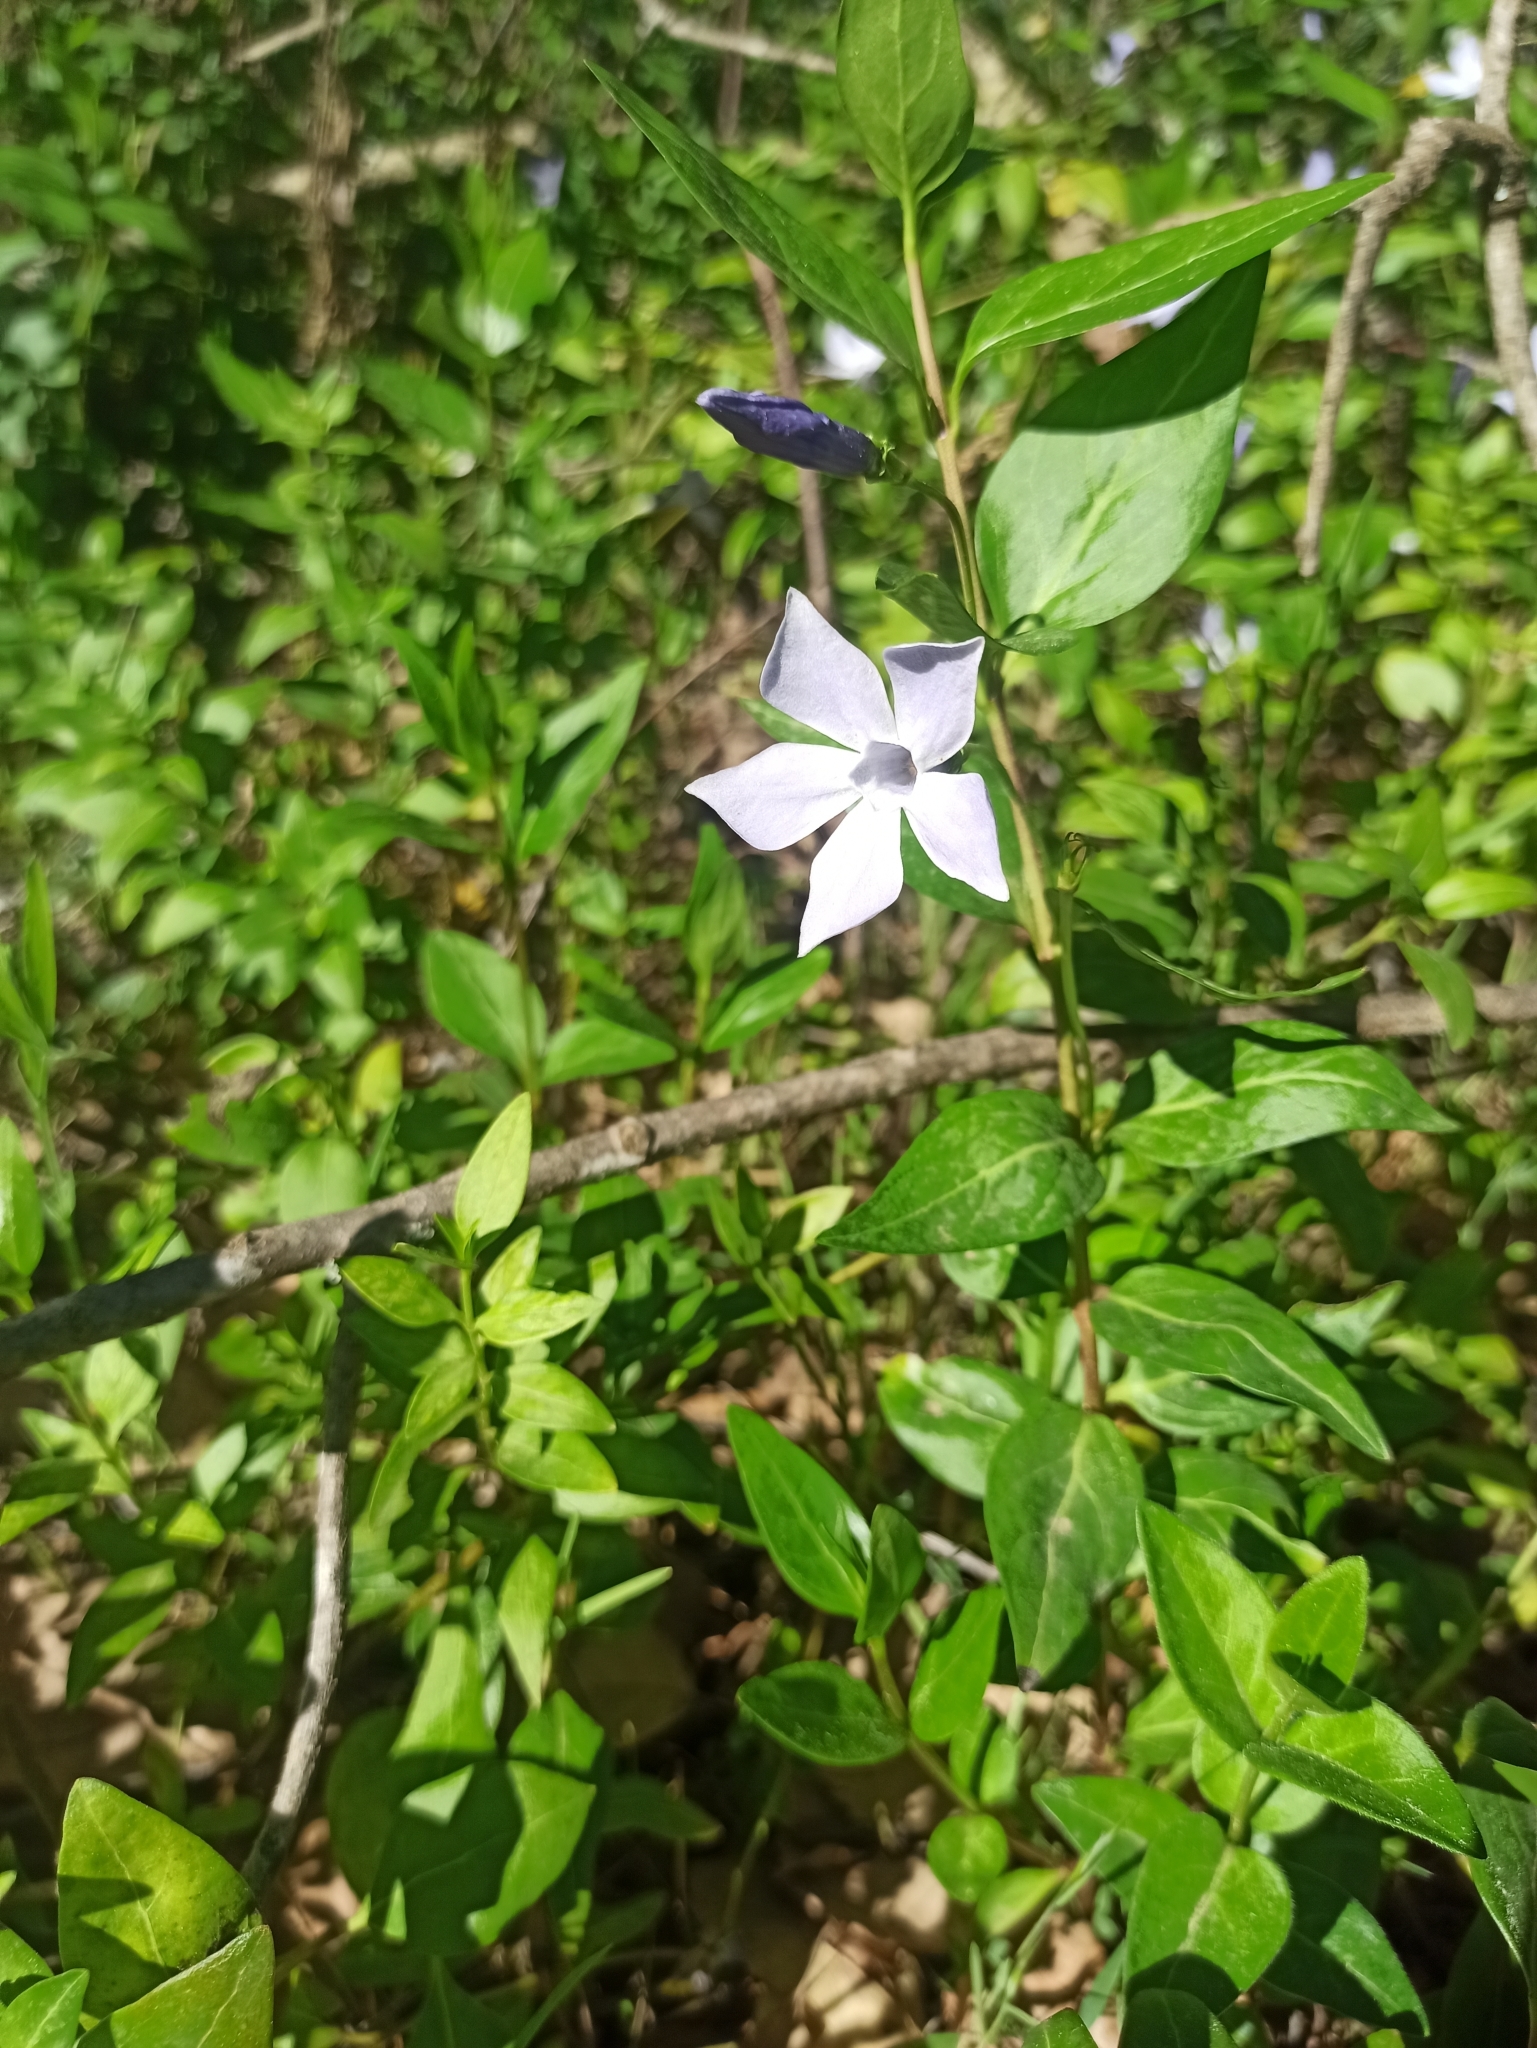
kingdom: Plantae
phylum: Tracheophyta
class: Magnoliopsida
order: Gentianales
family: Apocynaceae
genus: Vinca
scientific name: Vinca difformis
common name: Intermediate periwinkle
